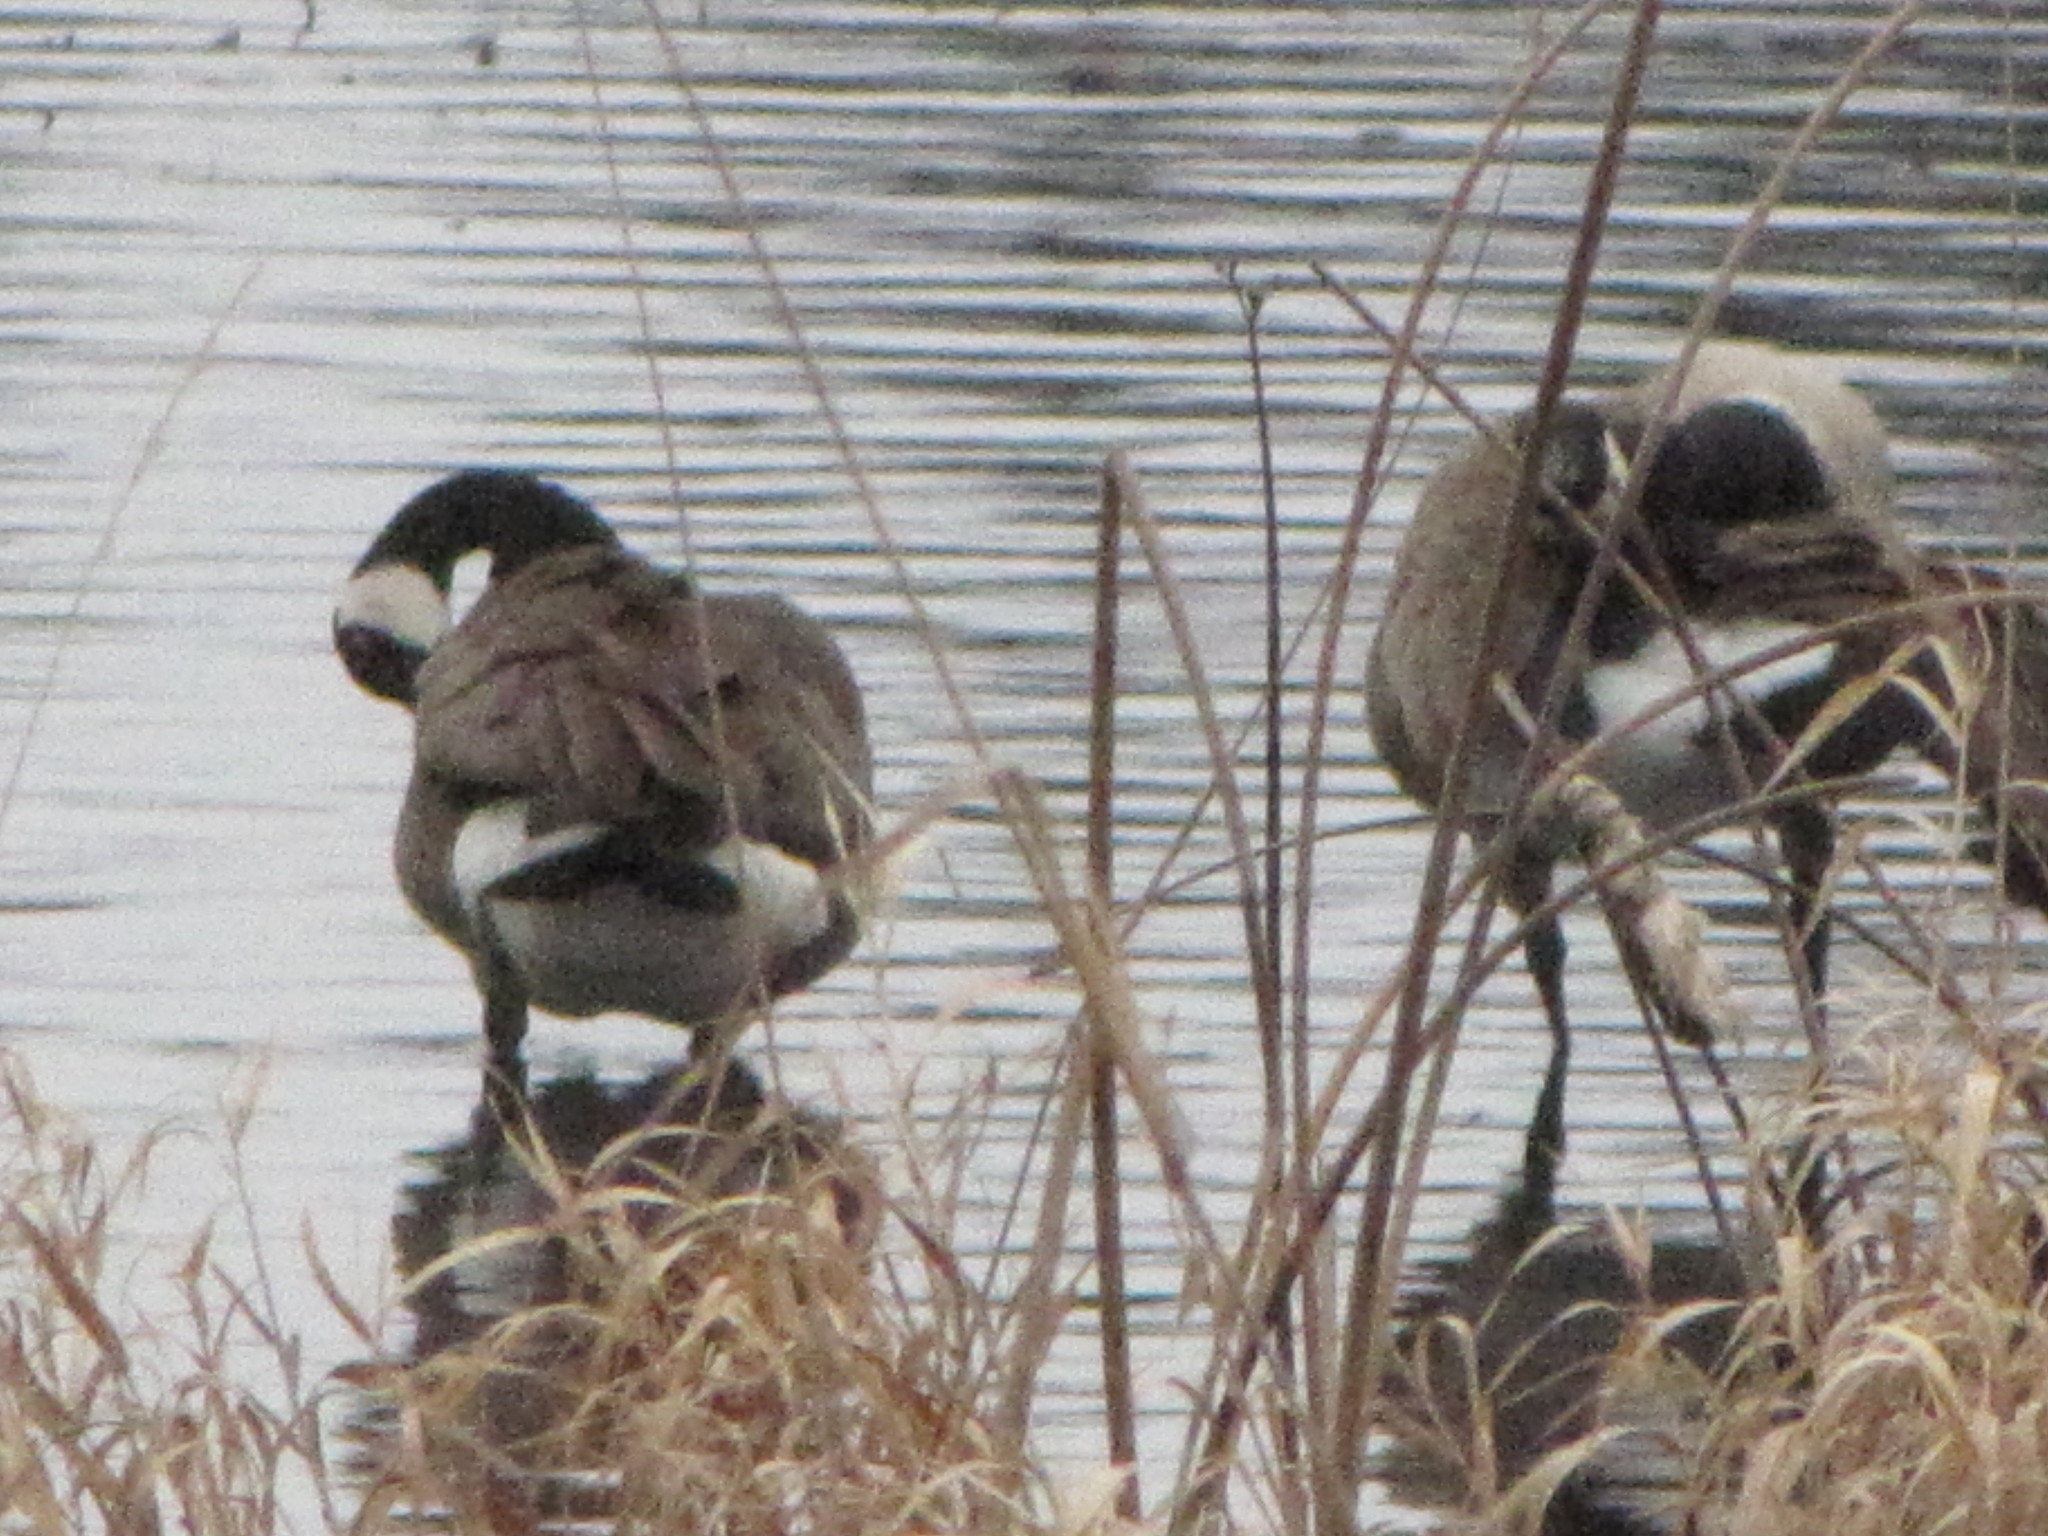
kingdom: Animalia
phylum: Chordata
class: Aves
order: Anseriformes
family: Anatidae
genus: Branta
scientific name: Branta canadensis
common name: Canada goose
